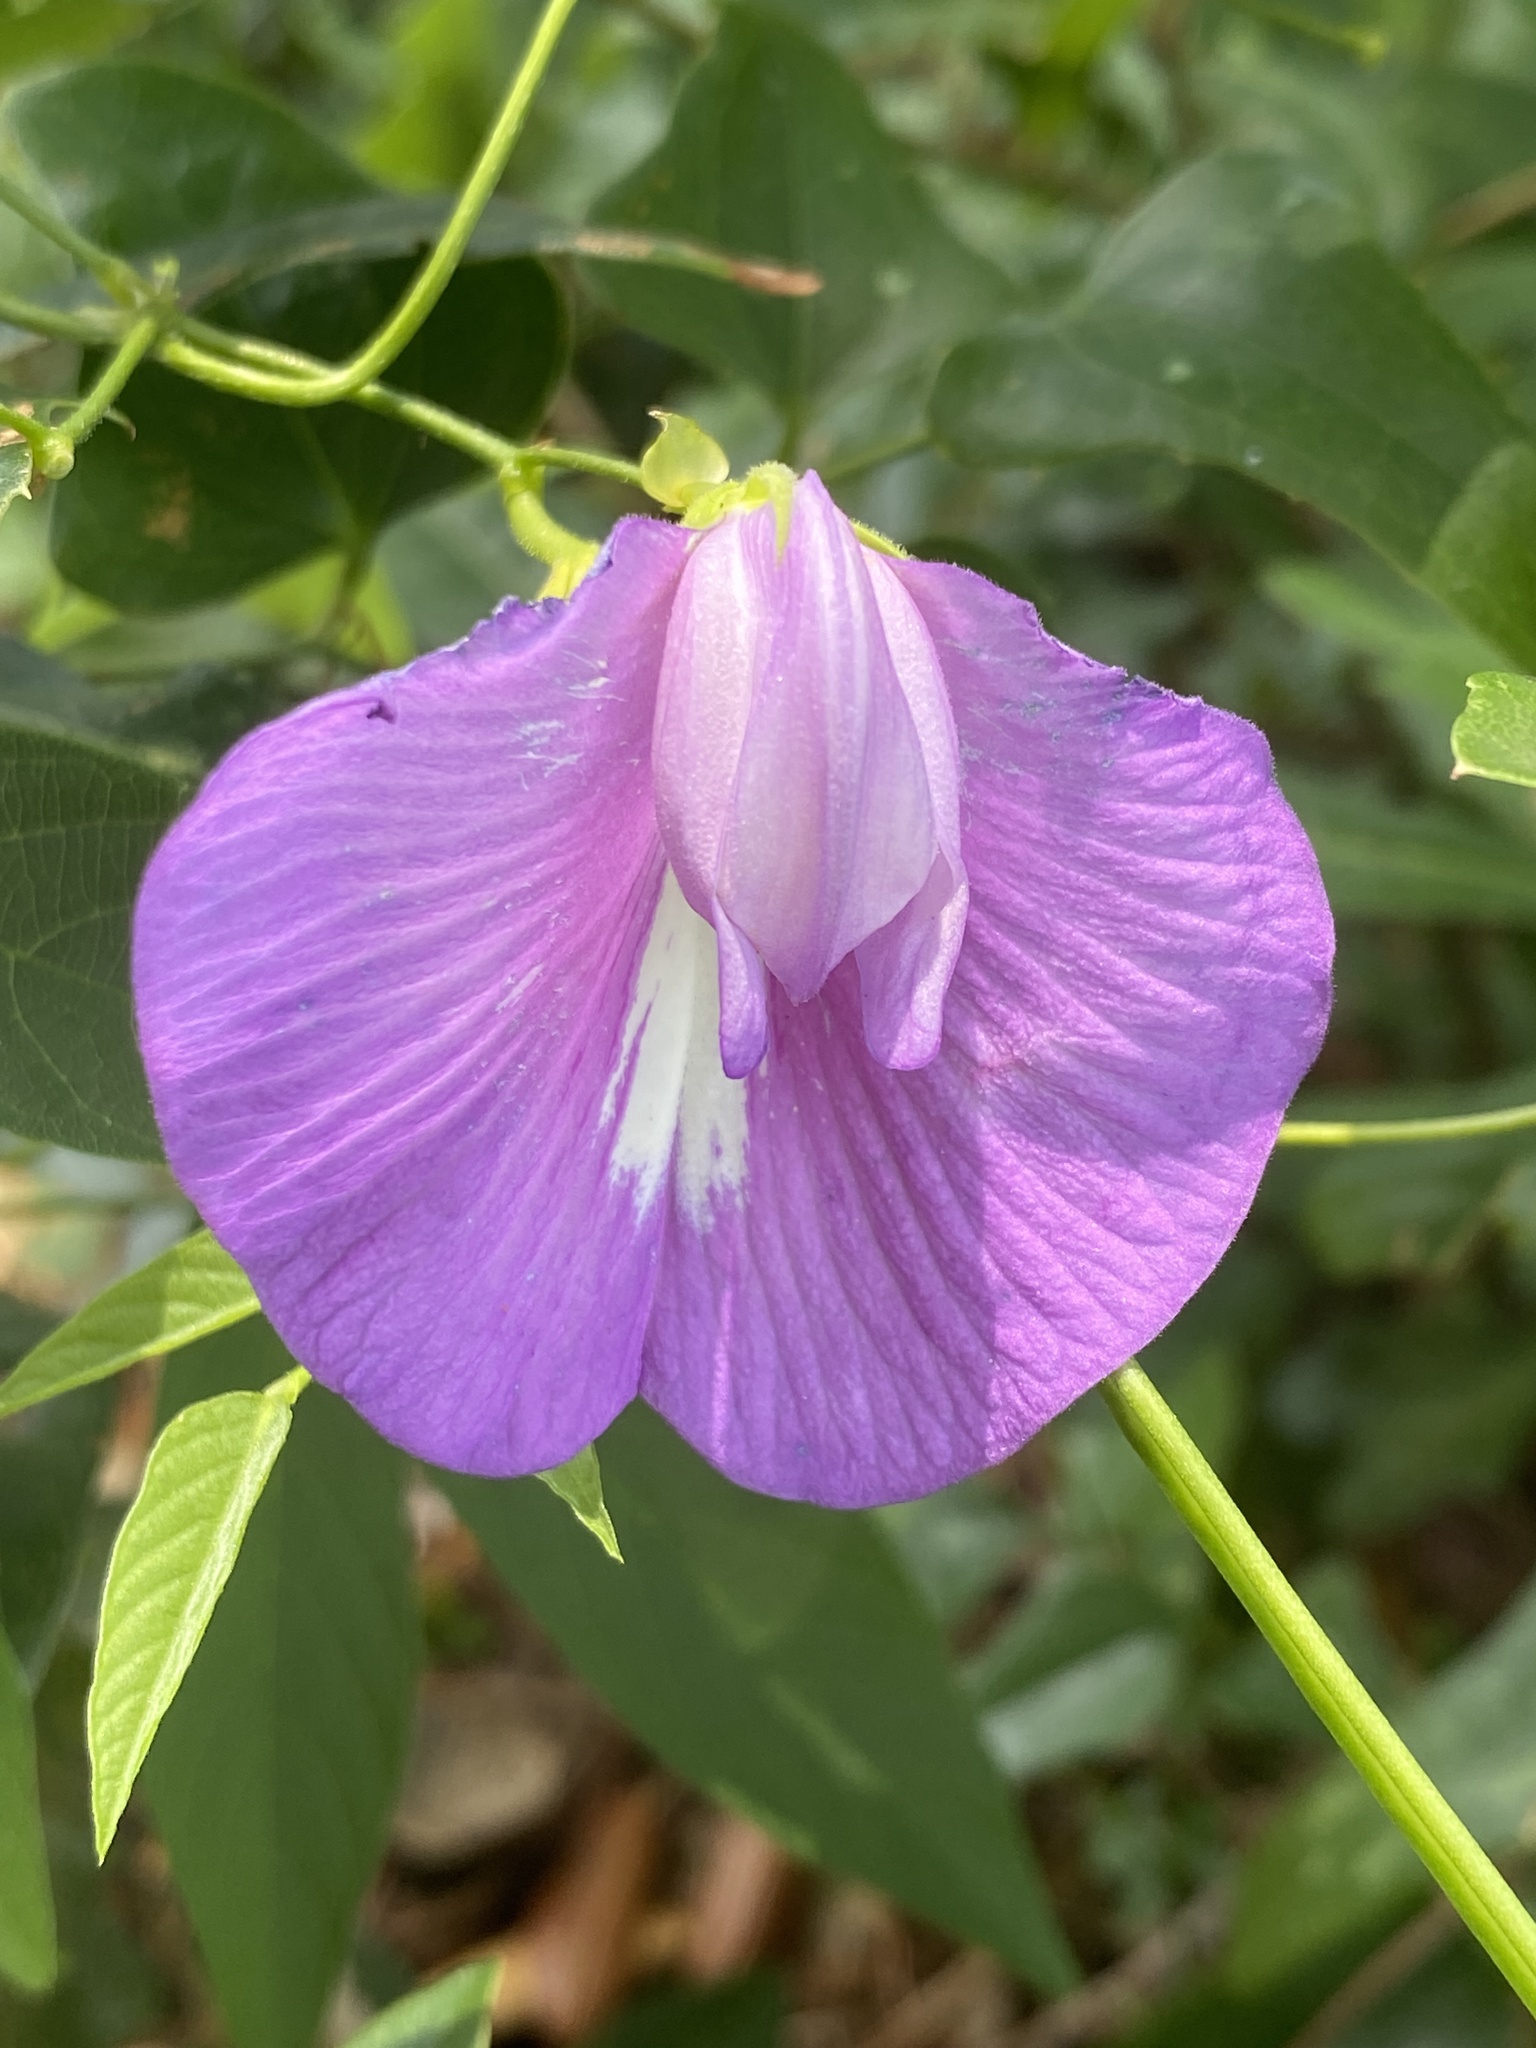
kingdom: Plantae
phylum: Tracheophyta
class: Magnoliopsida
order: Fabales
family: Fabaceae
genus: Centrosema
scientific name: Centrosema virginianum
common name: Butterfly-pea
